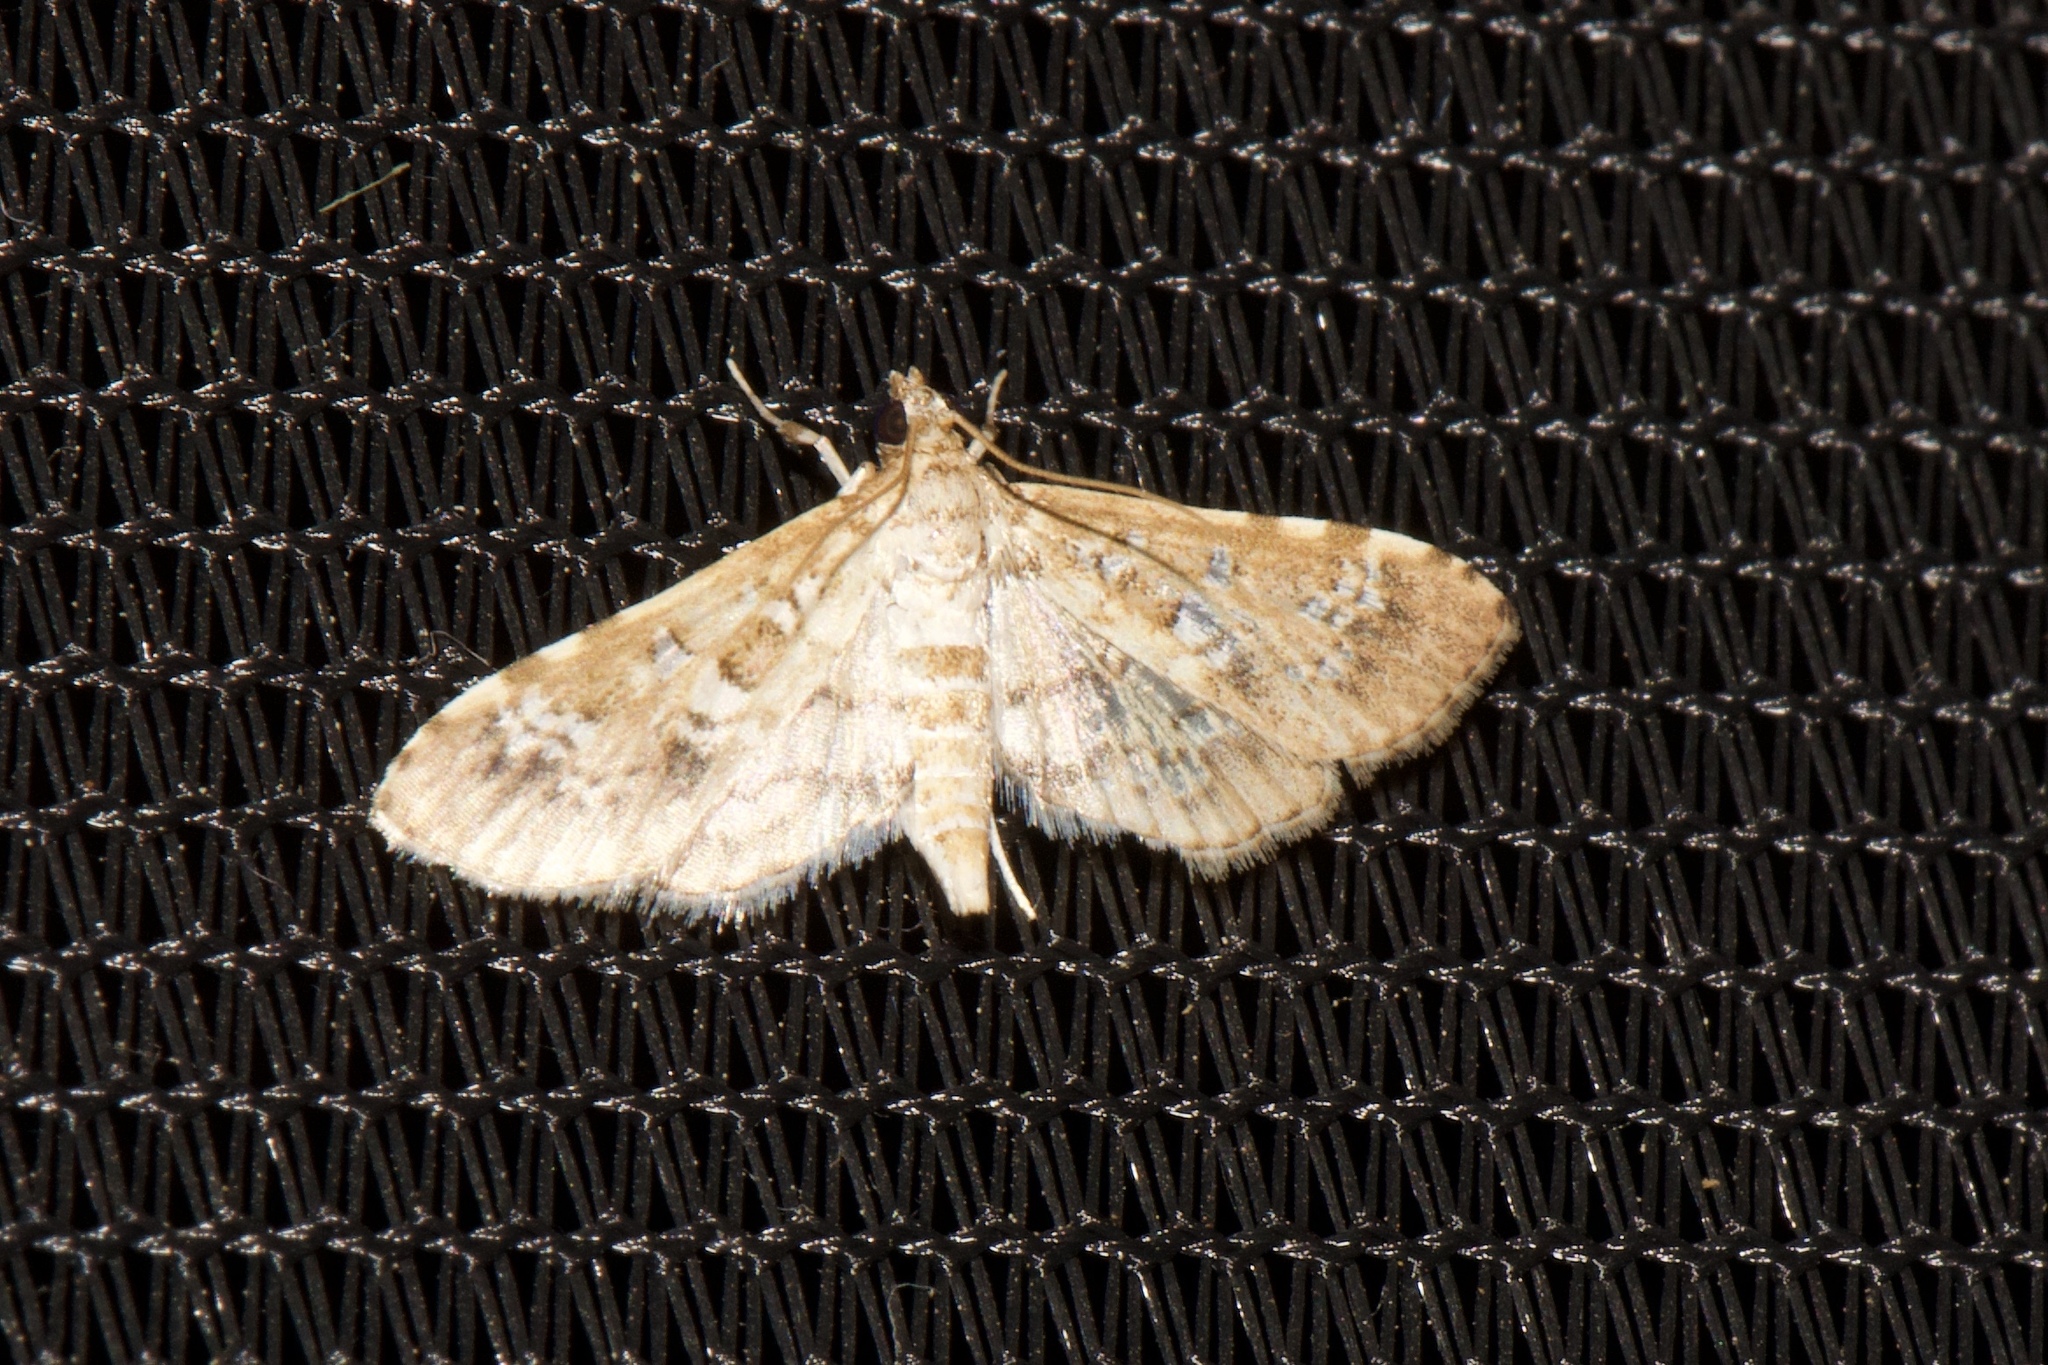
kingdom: Animalia
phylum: Arthropoda
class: Insecta
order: Lepidoptera
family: Crambidae
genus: Samea
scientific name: Samea multiplicalis
